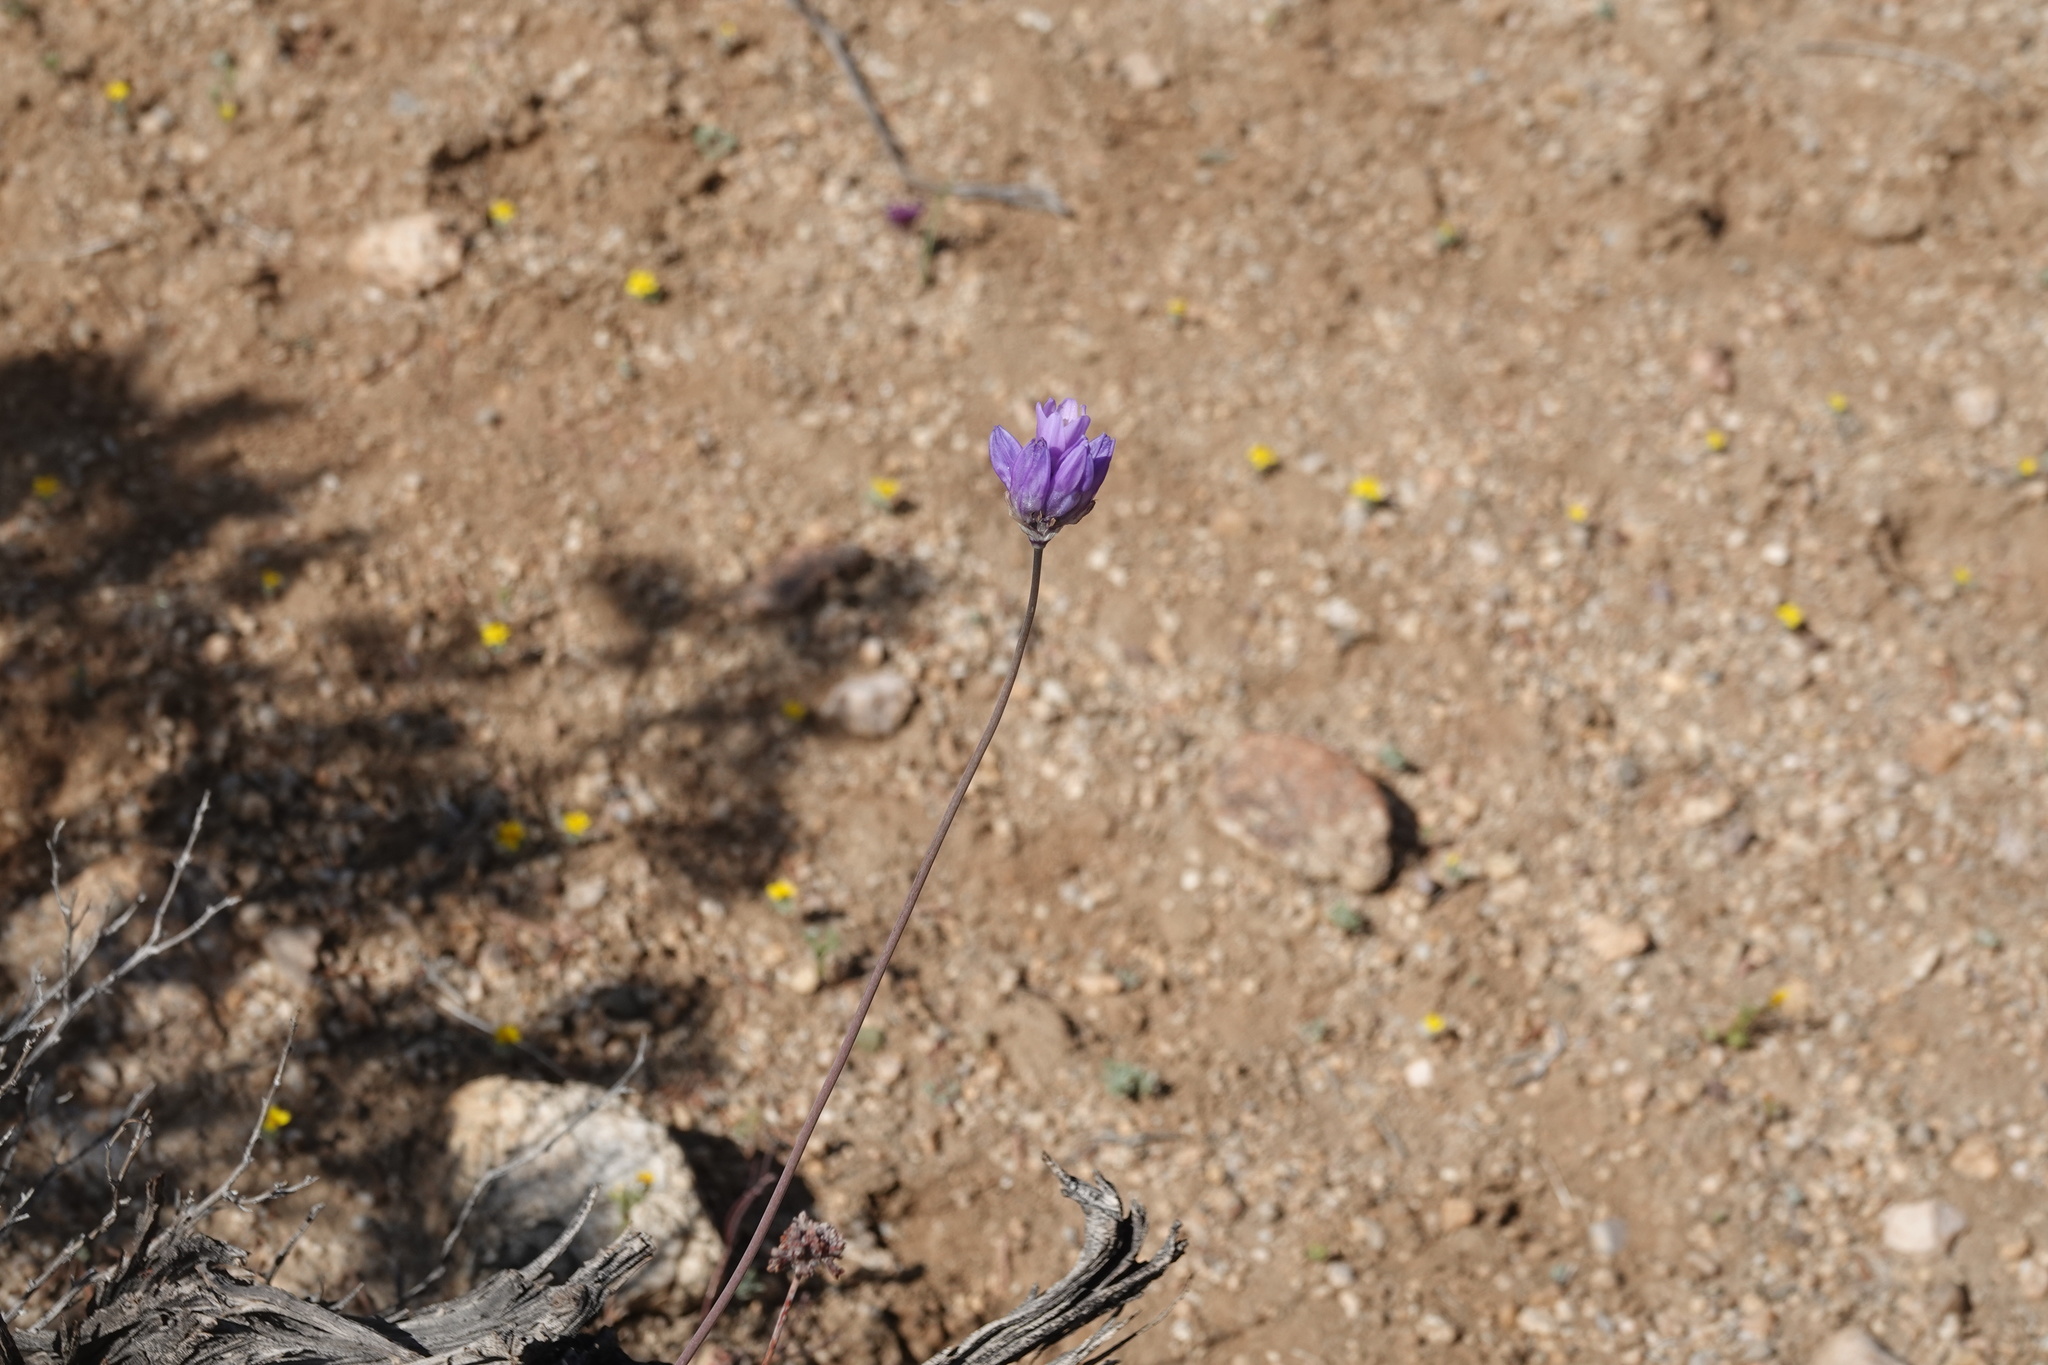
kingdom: Plantae
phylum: Tracheophyta
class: Liliopsida
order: Asparagales
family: Asparagaceae
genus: Dipterostemon
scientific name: Dipterostemon capitatus
